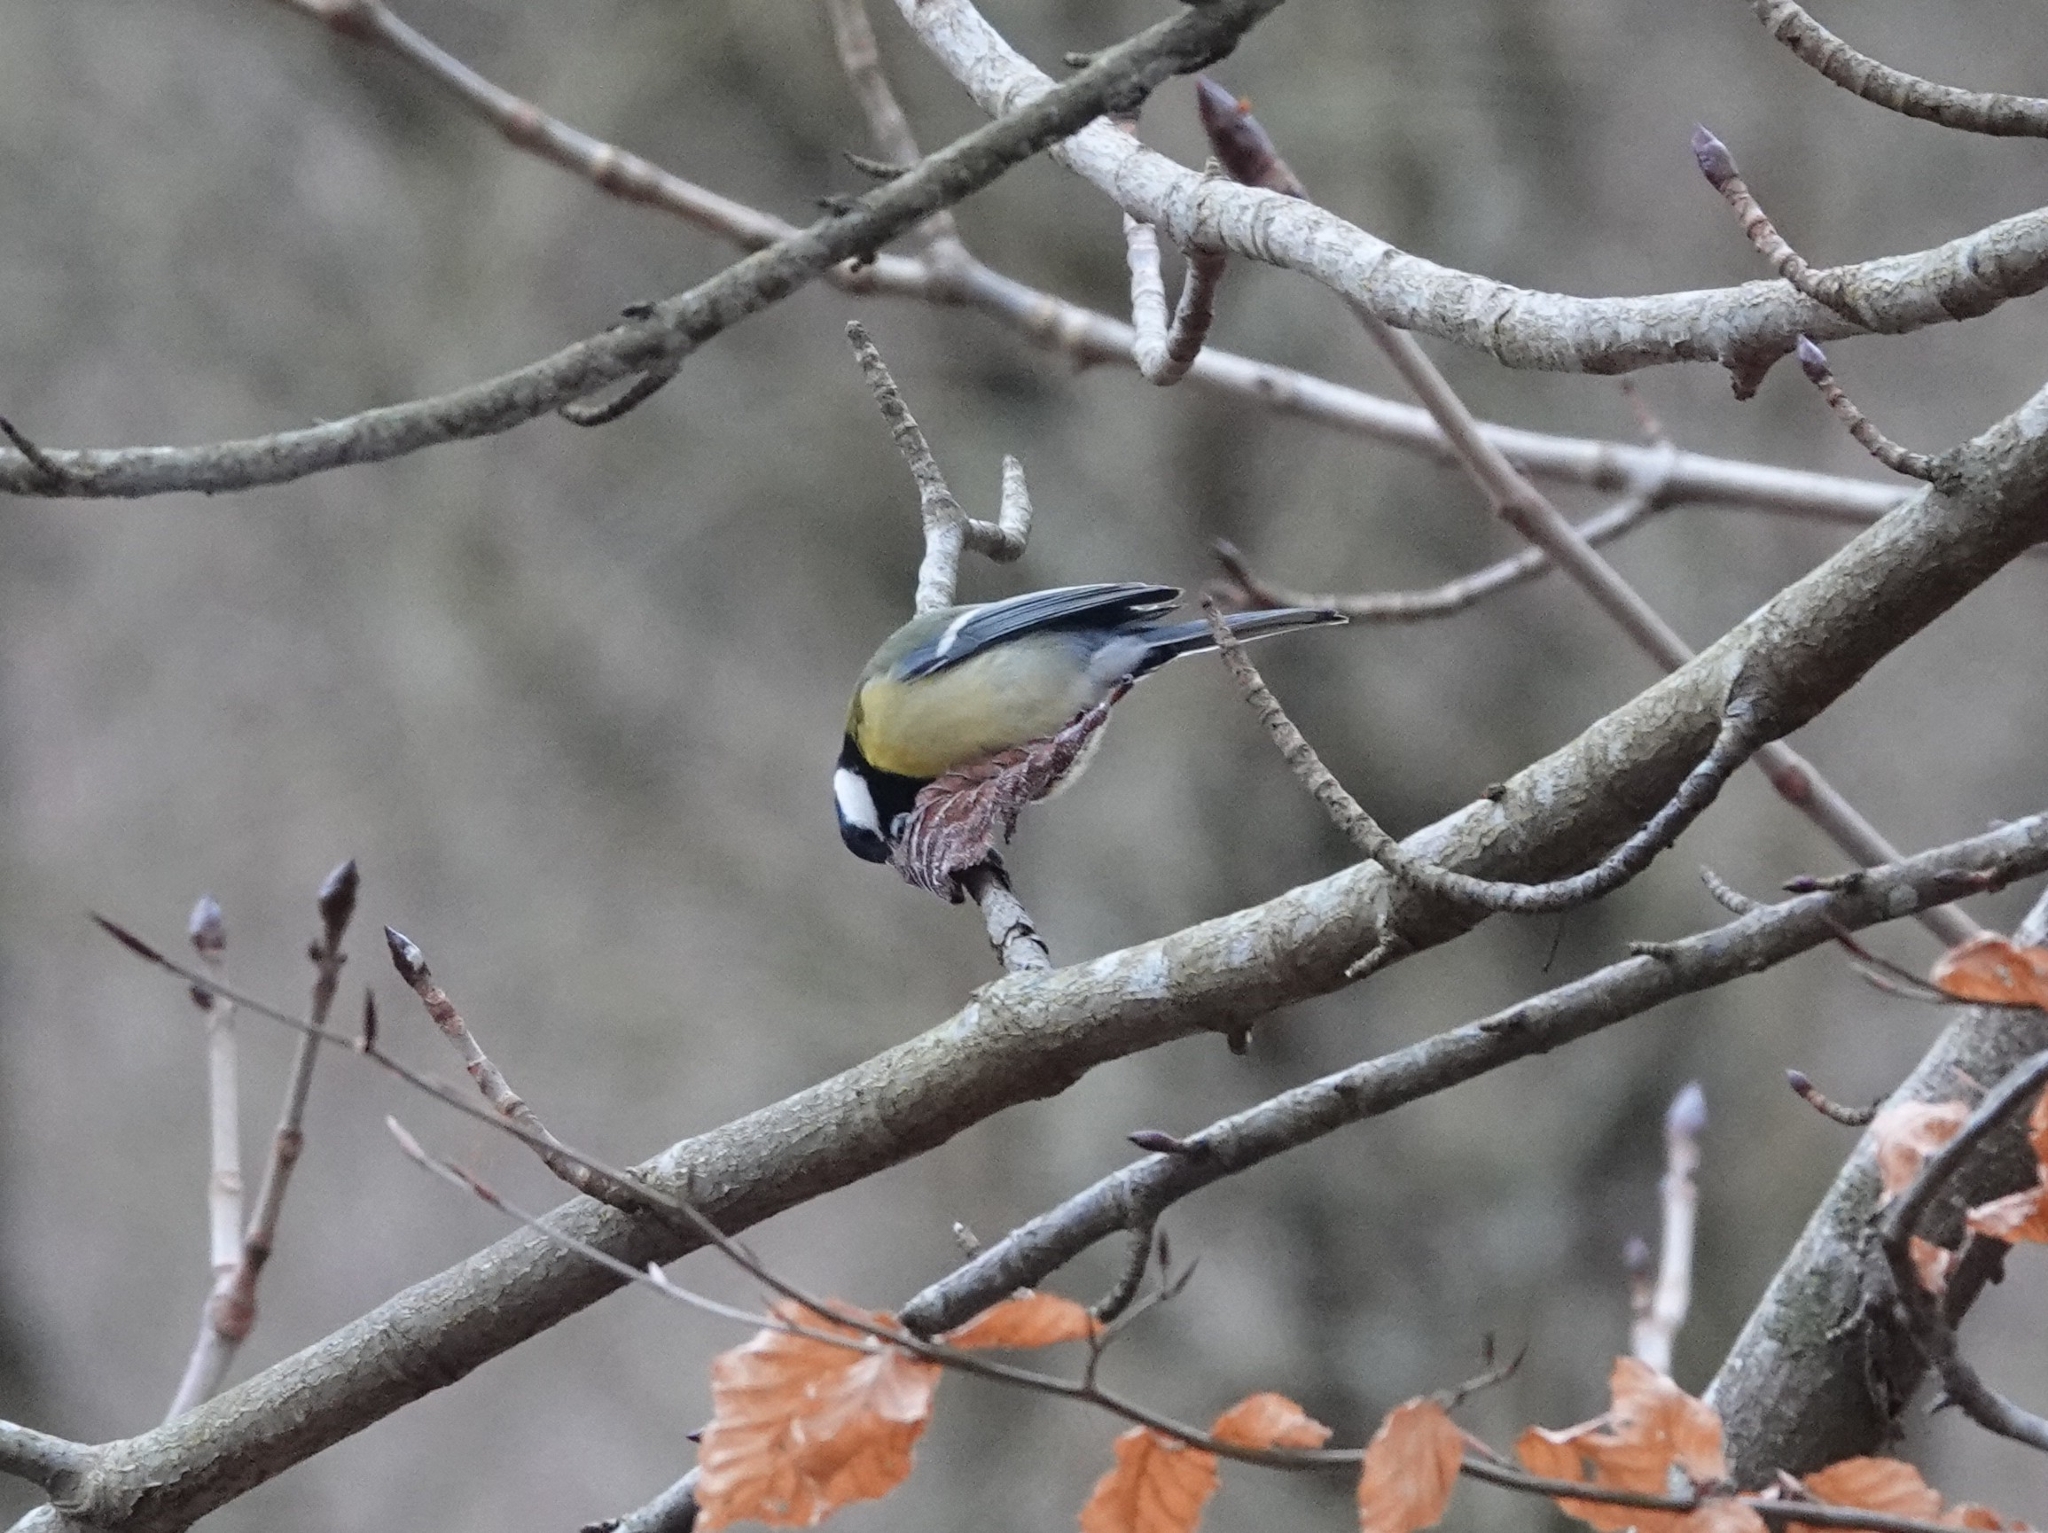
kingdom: Animalia
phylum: Chordata
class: Aves
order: Passeriformes
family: Paridae
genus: Parus
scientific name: Parus major
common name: Great tit
